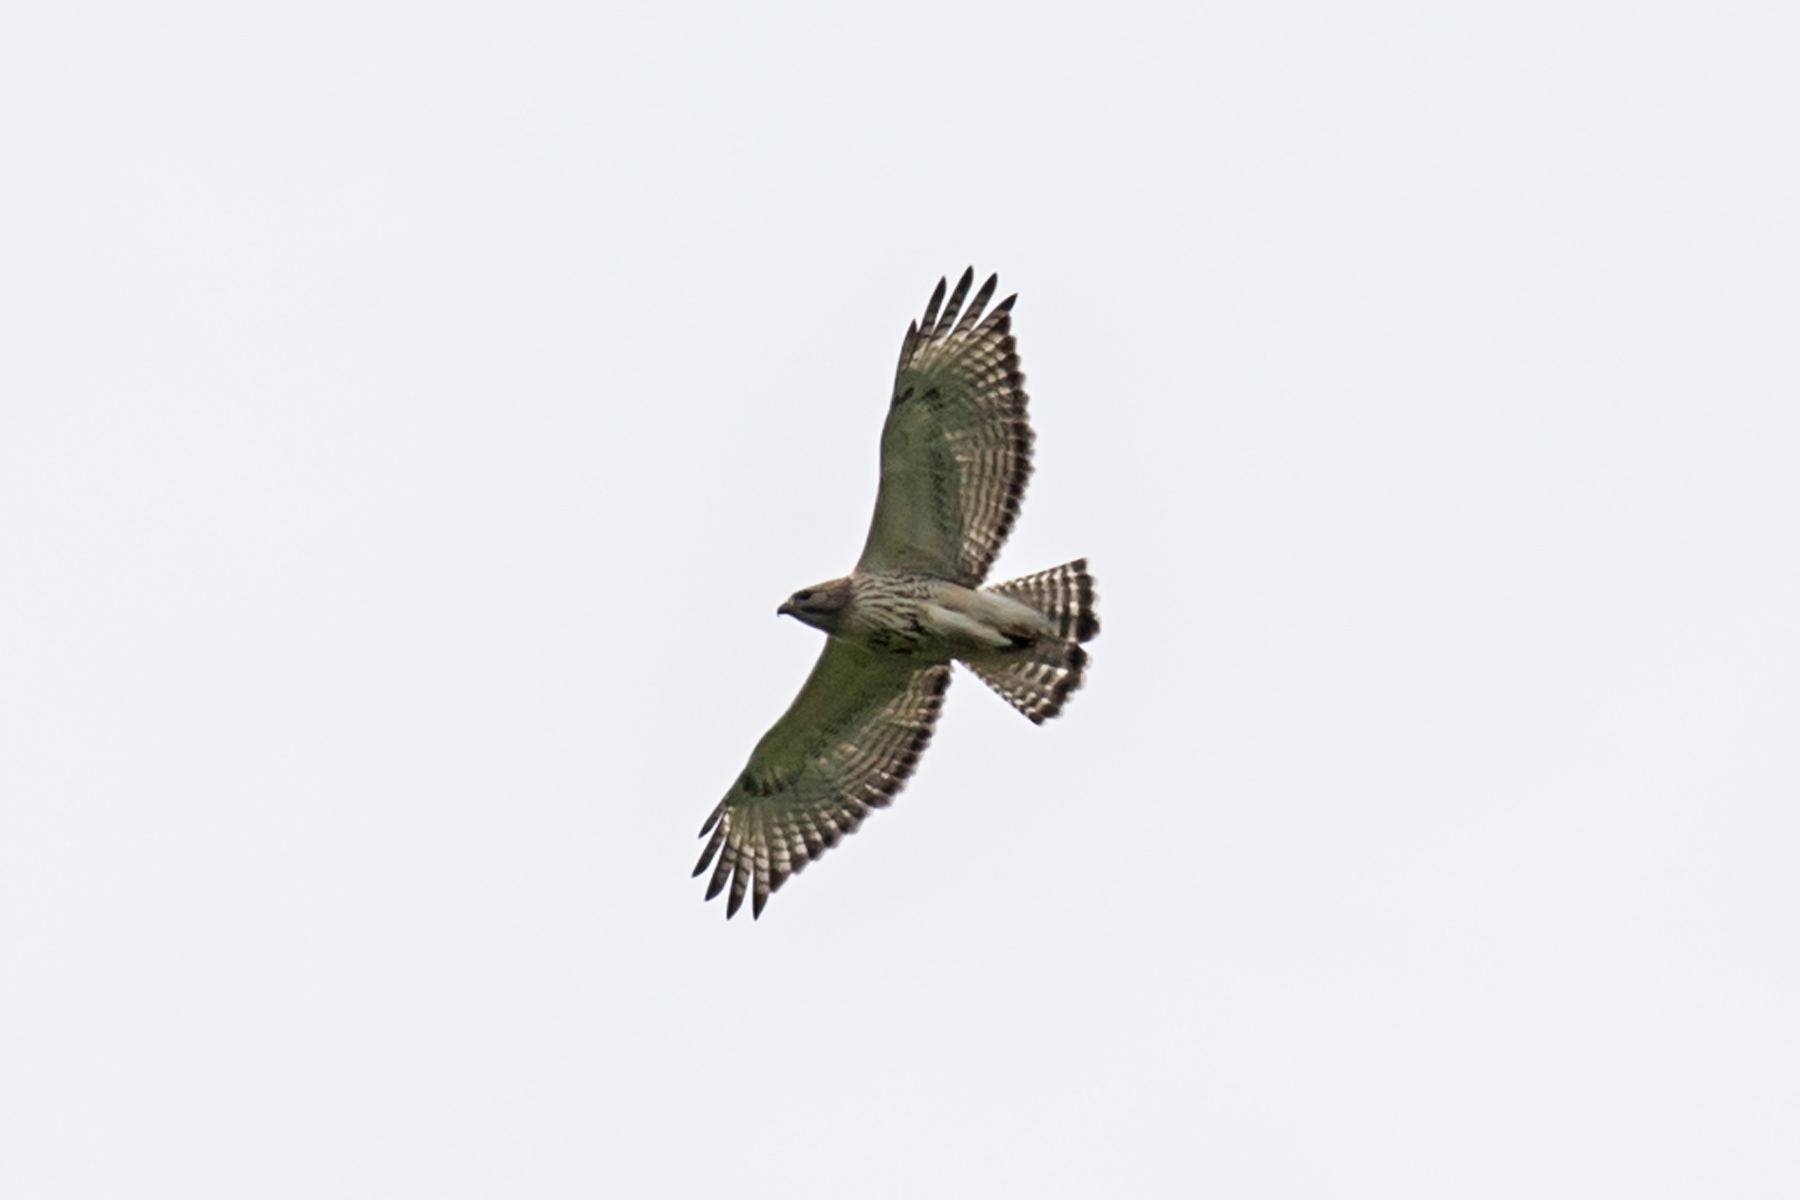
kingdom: Animalia
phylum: Chordata
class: Aves
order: Accipitriformes
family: Accipitridae
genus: Buteo
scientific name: Buteo
